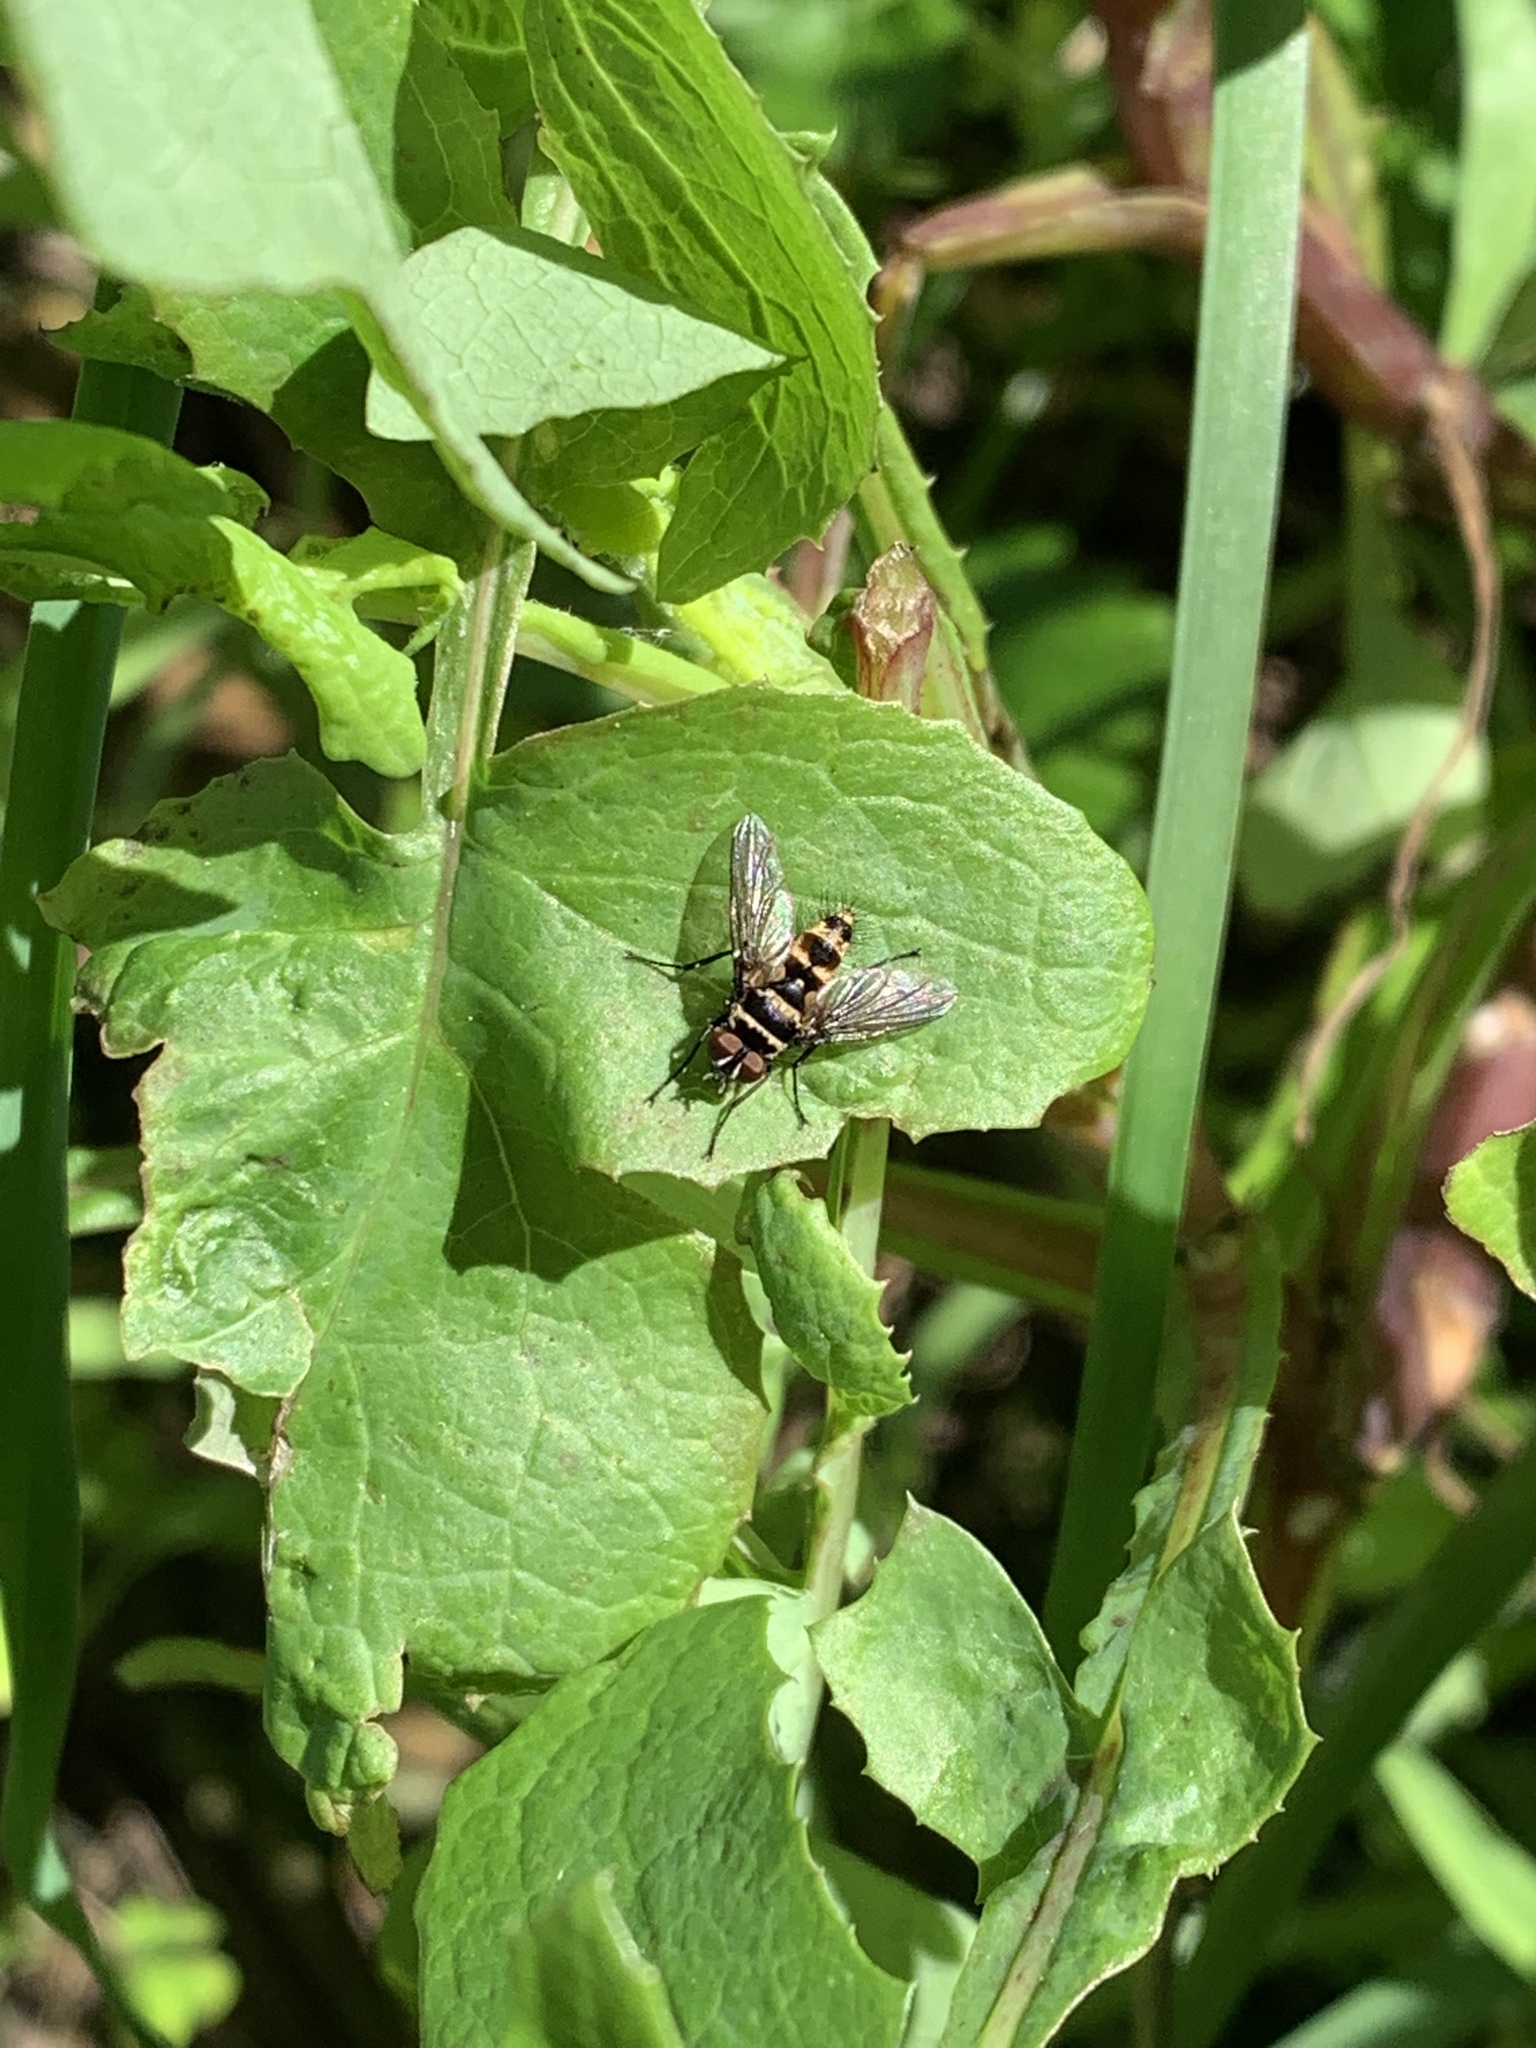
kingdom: Animalia
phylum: Arthropoda
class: Insecta
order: Diptera
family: Tachinidae
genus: Trigonospila
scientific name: Trigonospila brevifacies
